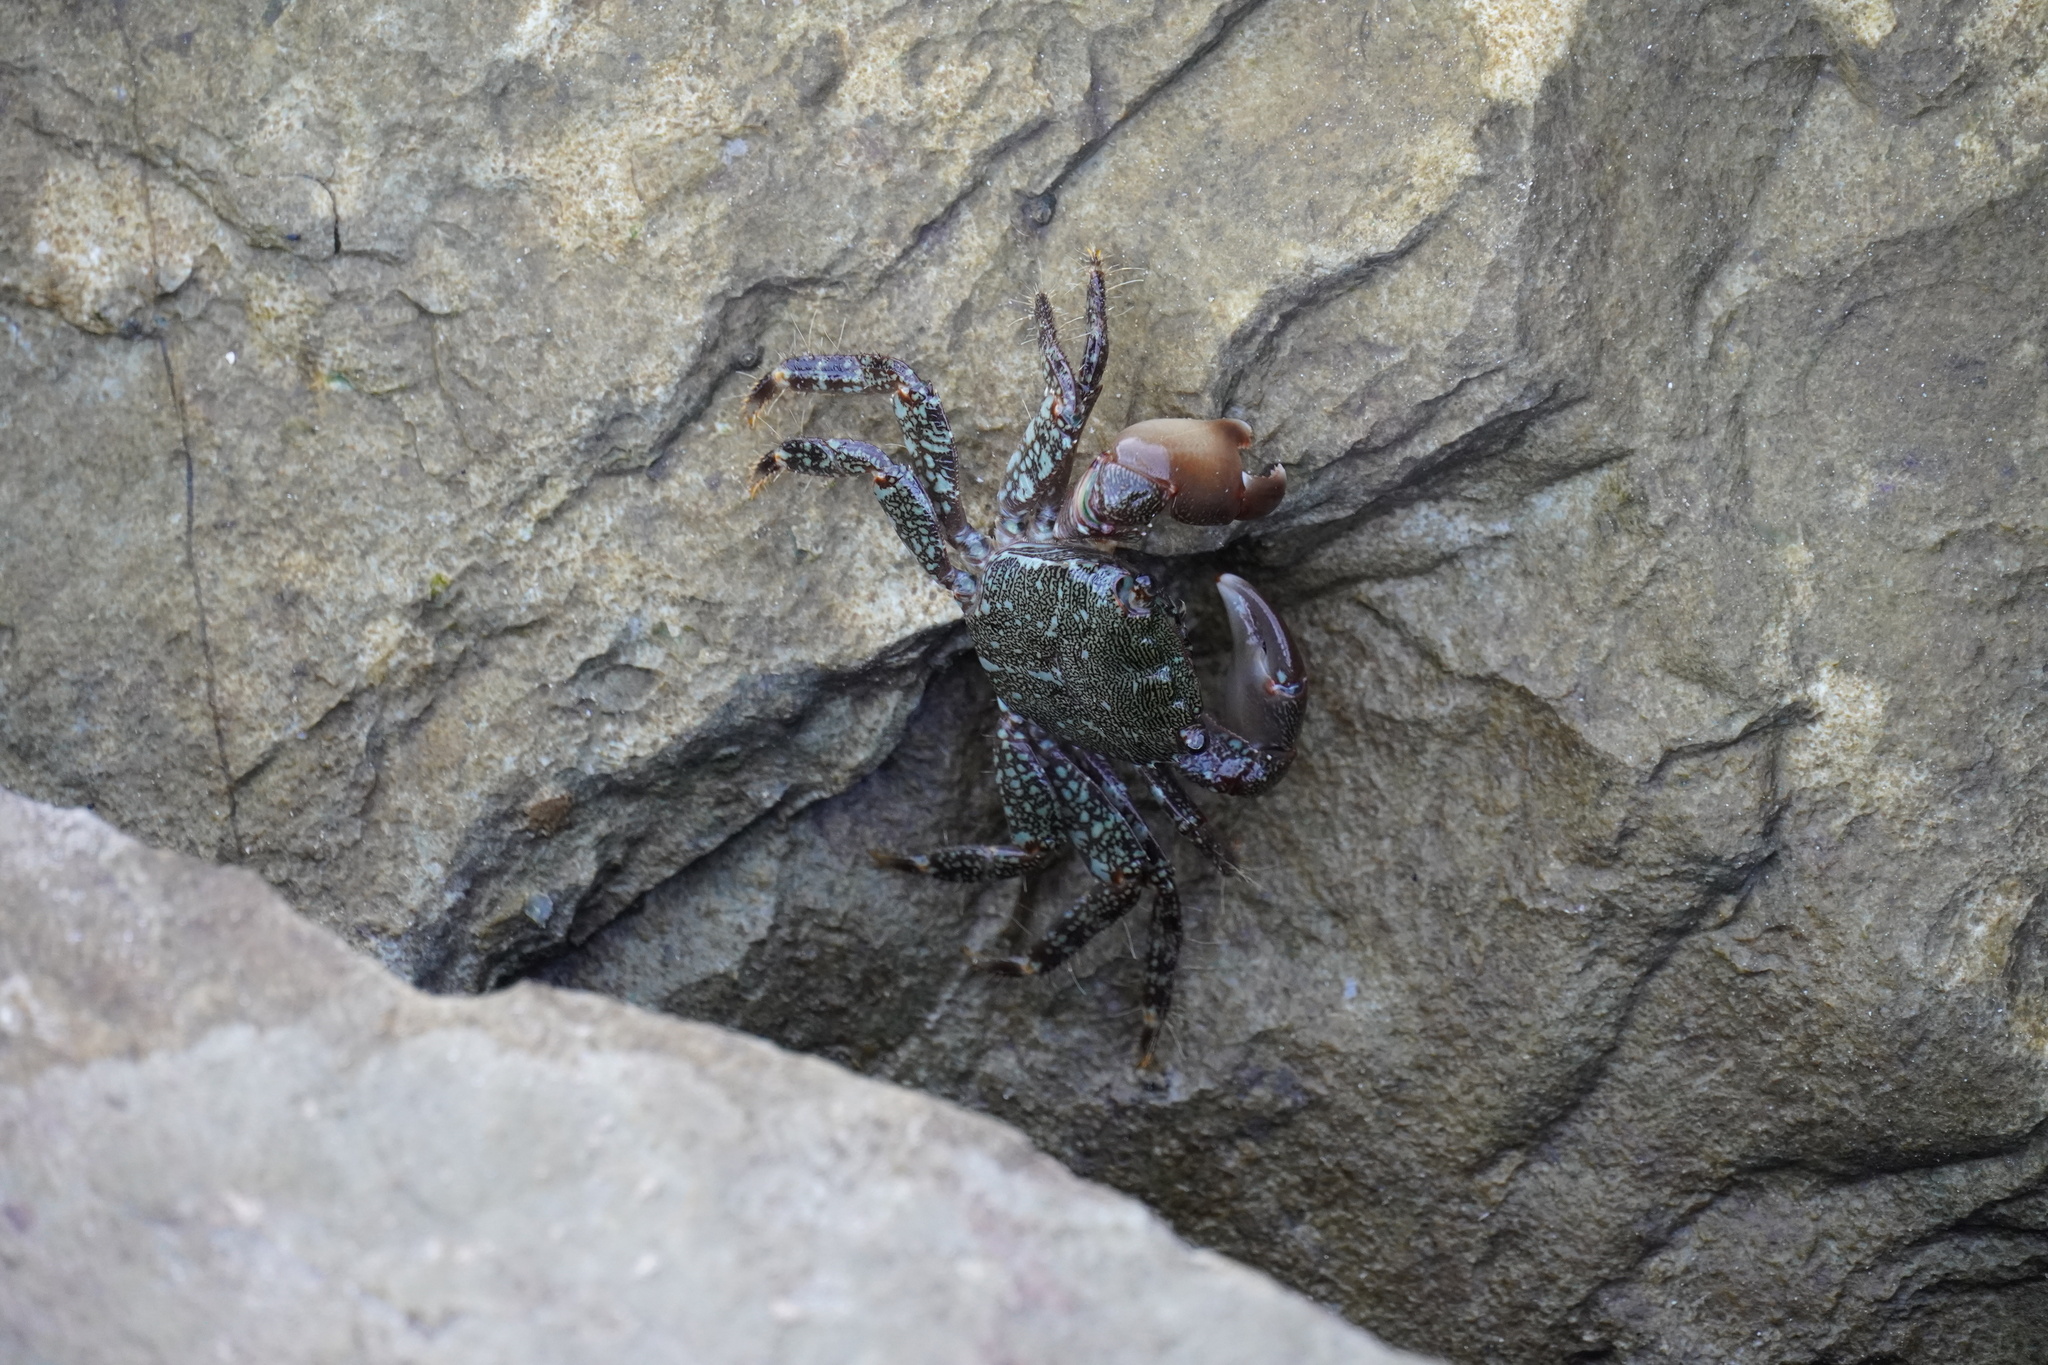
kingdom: Animalia
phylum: Arthropoda
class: Malacostraca
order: Decapoda
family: Grapsidae
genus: Pachygrapsus
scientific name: Pachygrapsus marmoratus
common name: Marbled rock crab
